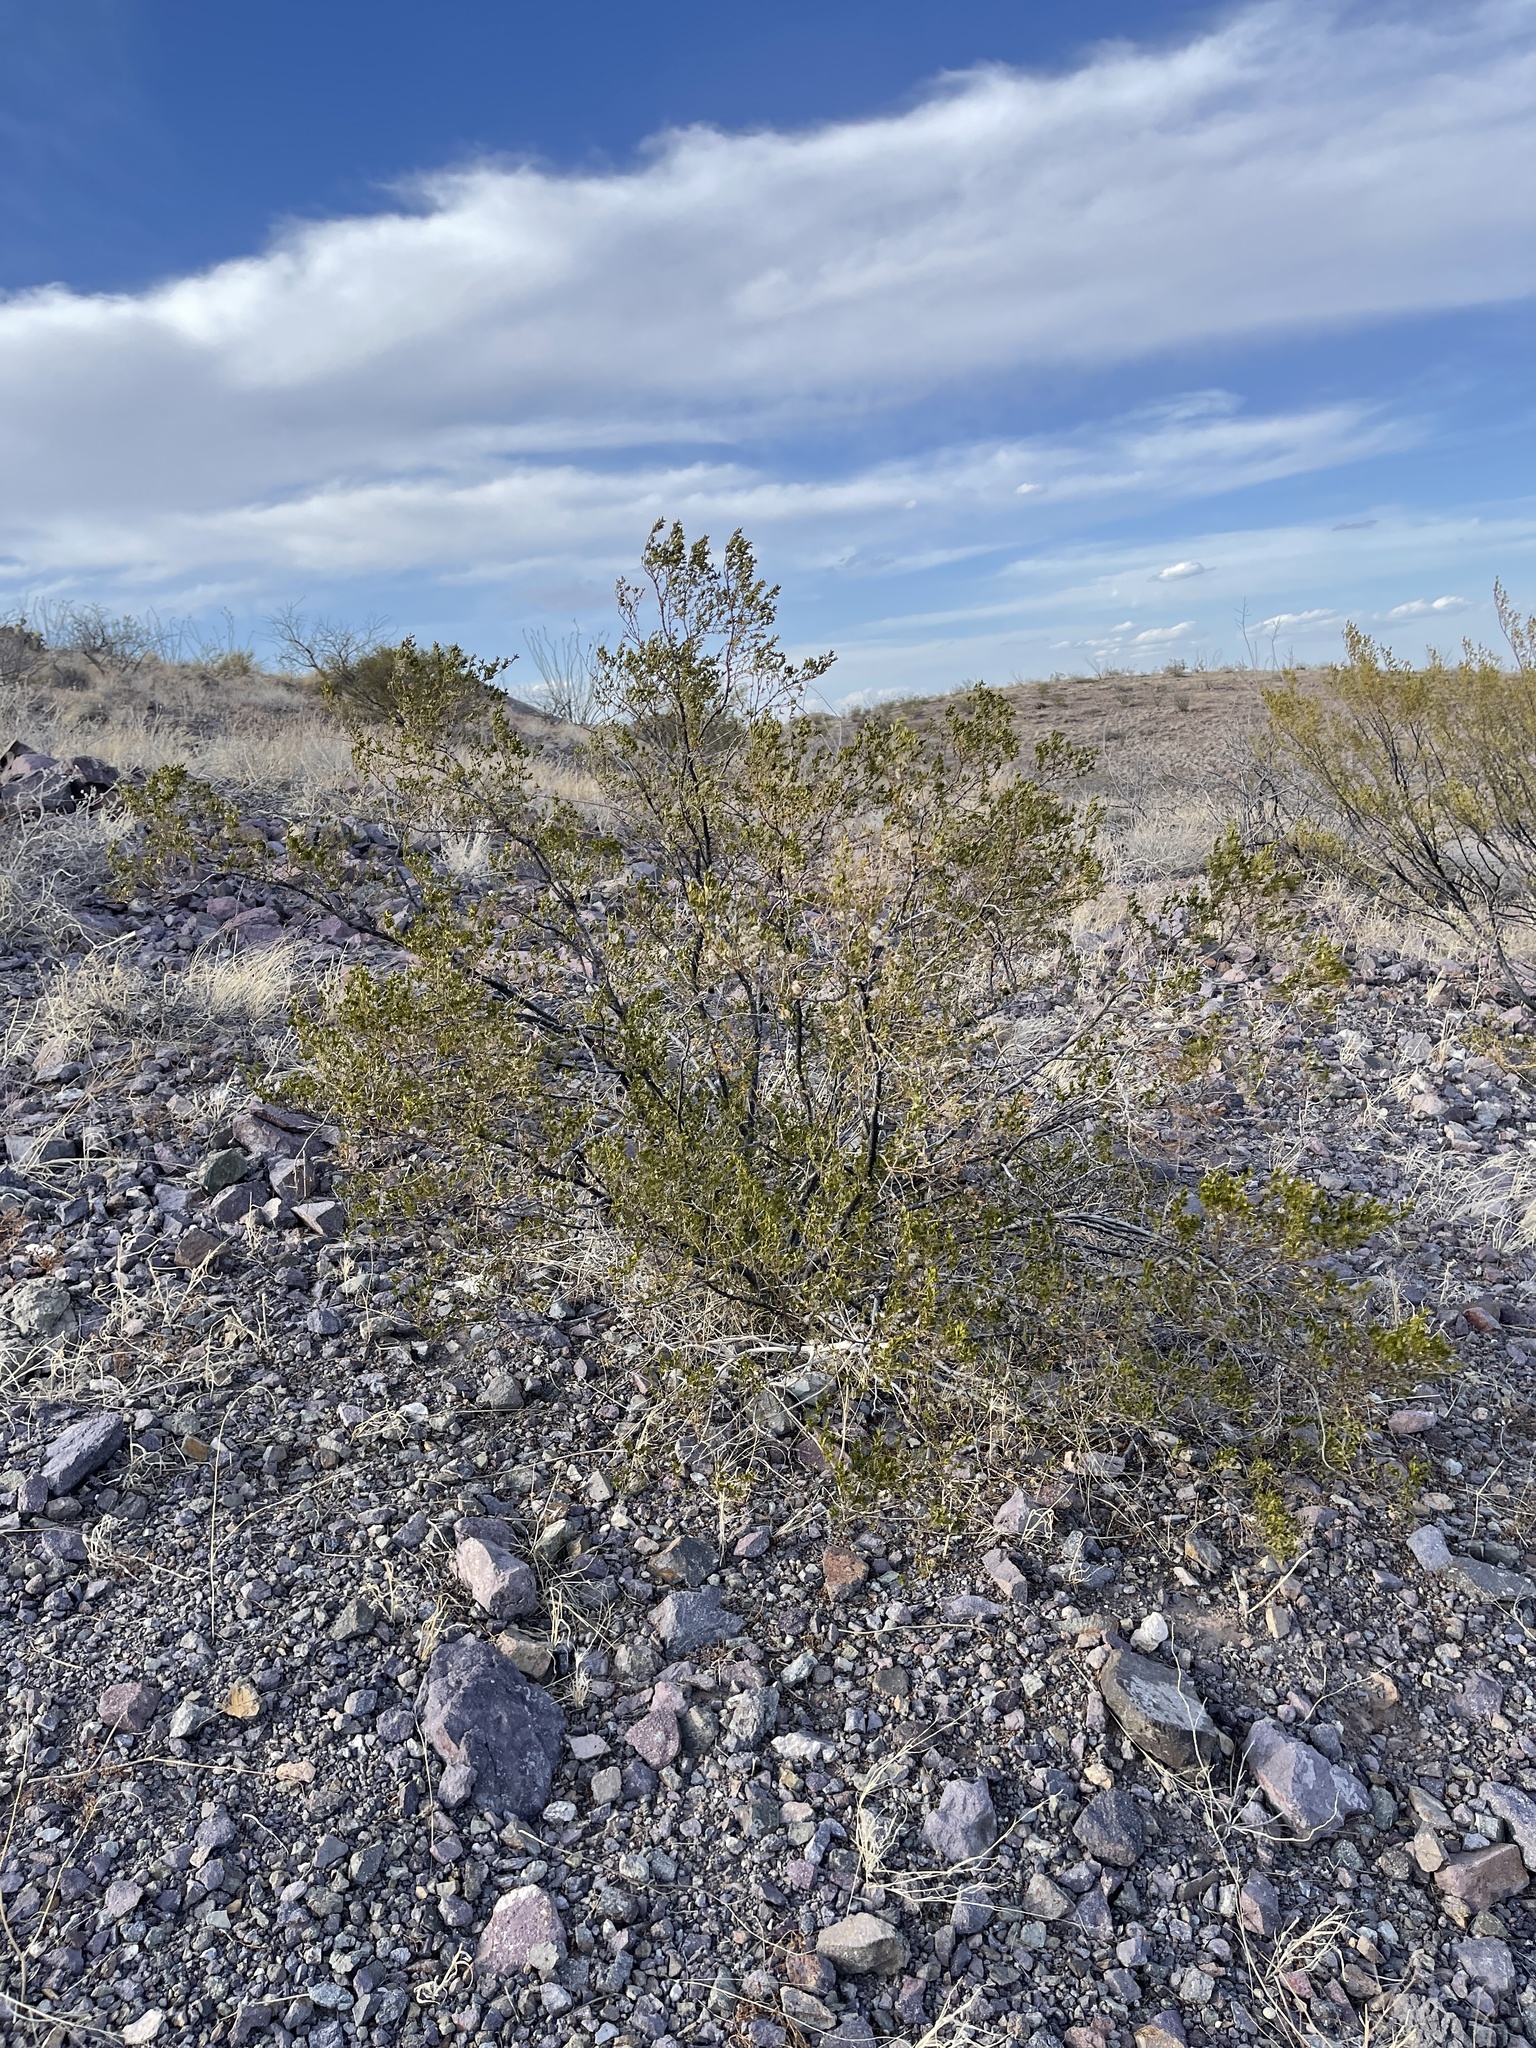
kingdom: Plantae
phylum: Tracheophyta
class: Magnoliopsida
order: Zygophyllales
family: Zygophyllaceae
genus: Larrea
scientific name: Larrea tridentata
